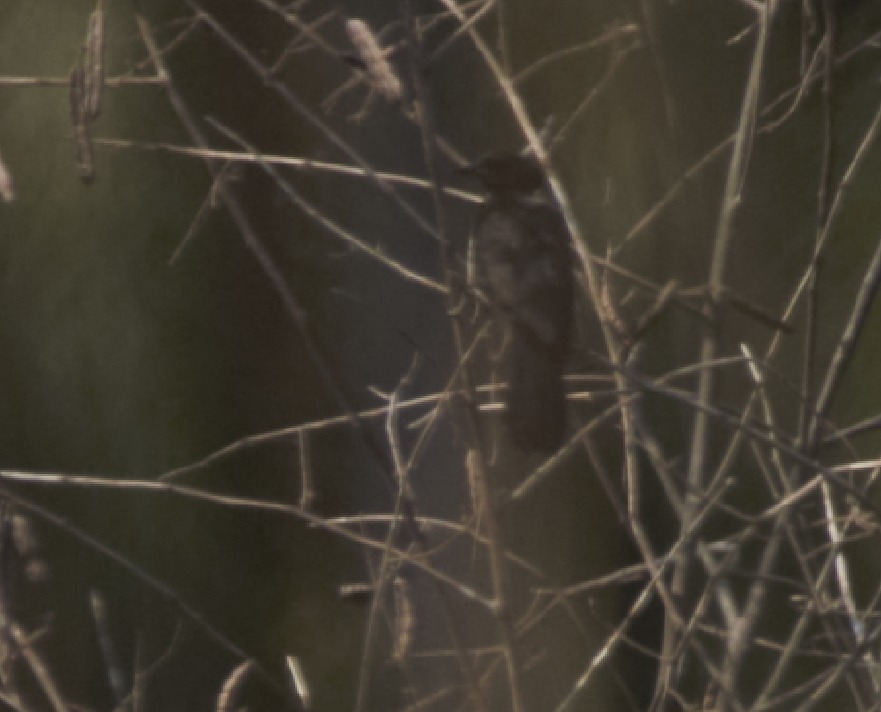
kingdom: Animalia
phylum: Chordata
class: Aves
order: Passeriformes
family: Icteridae
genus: Agelasticus
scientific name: Agelasticus cyanopus
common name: Unicolored blackbird
